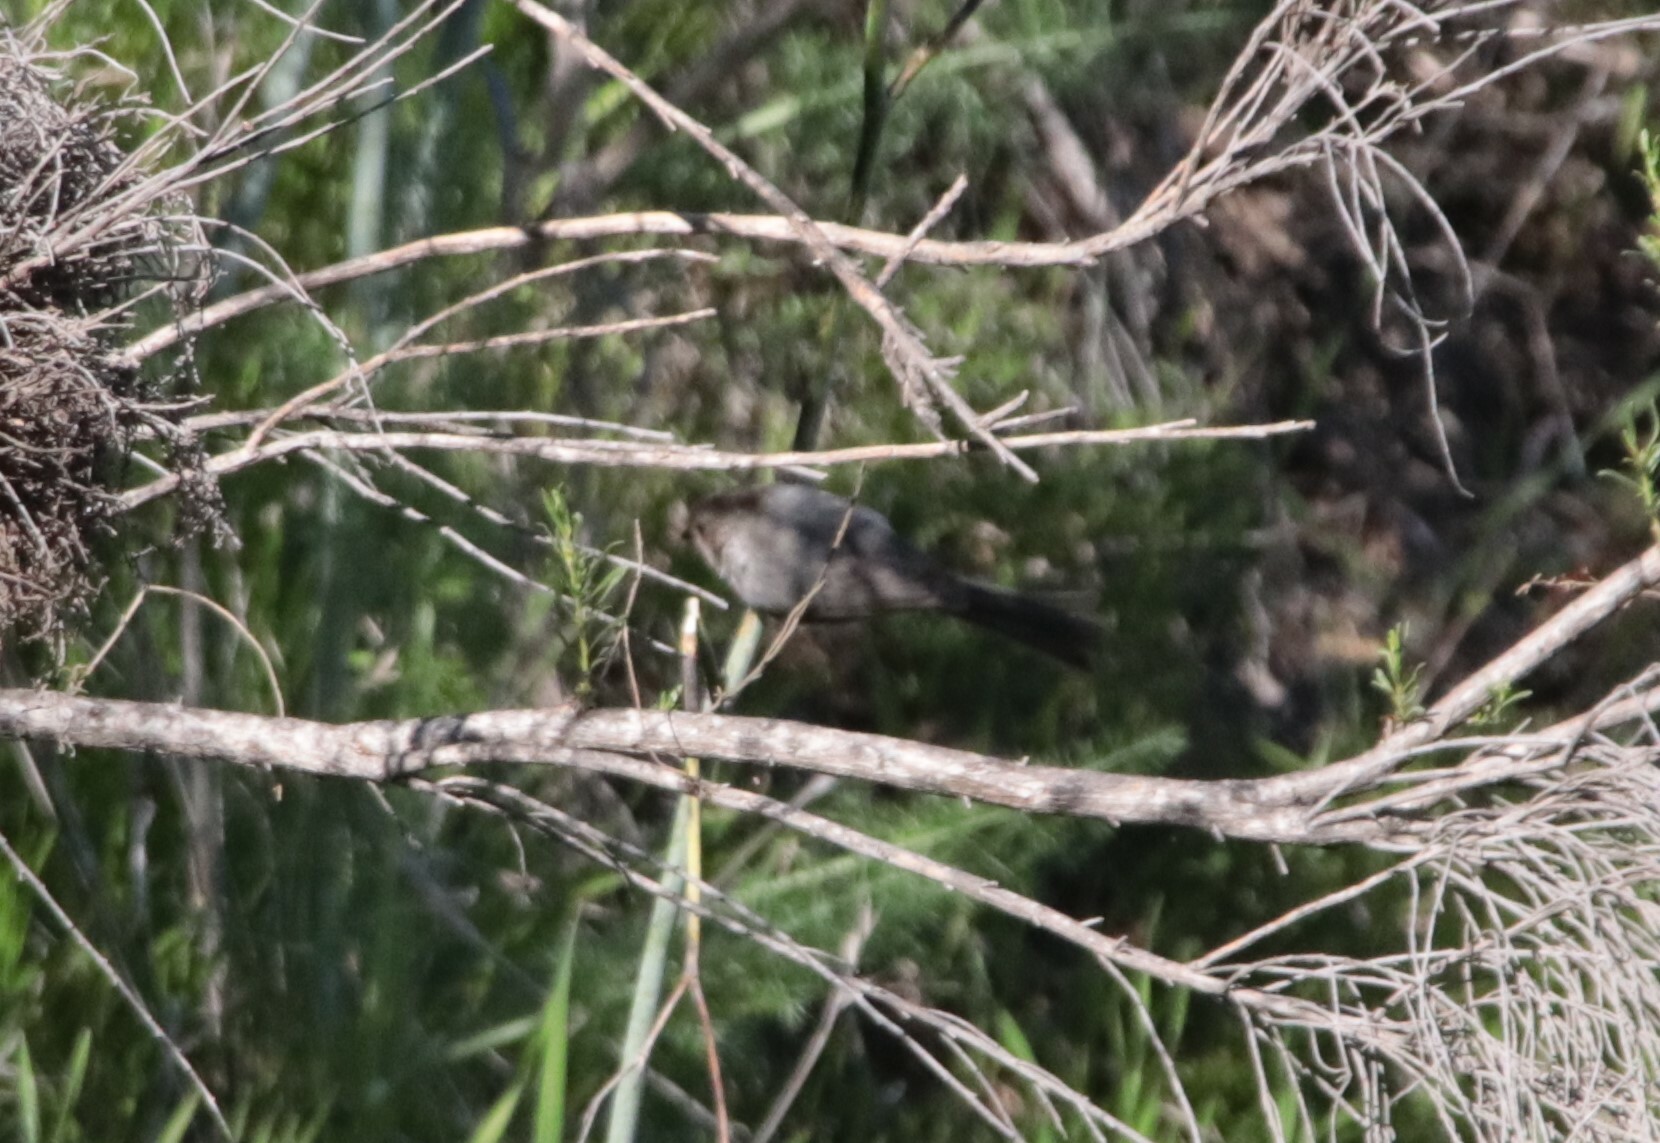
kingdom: Animalia
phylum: Chordata
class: Aves
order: Passeriformes
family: Aegithalidae
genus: Psaltriparus
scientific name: Psaltriparus minimus
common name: American bushtit
